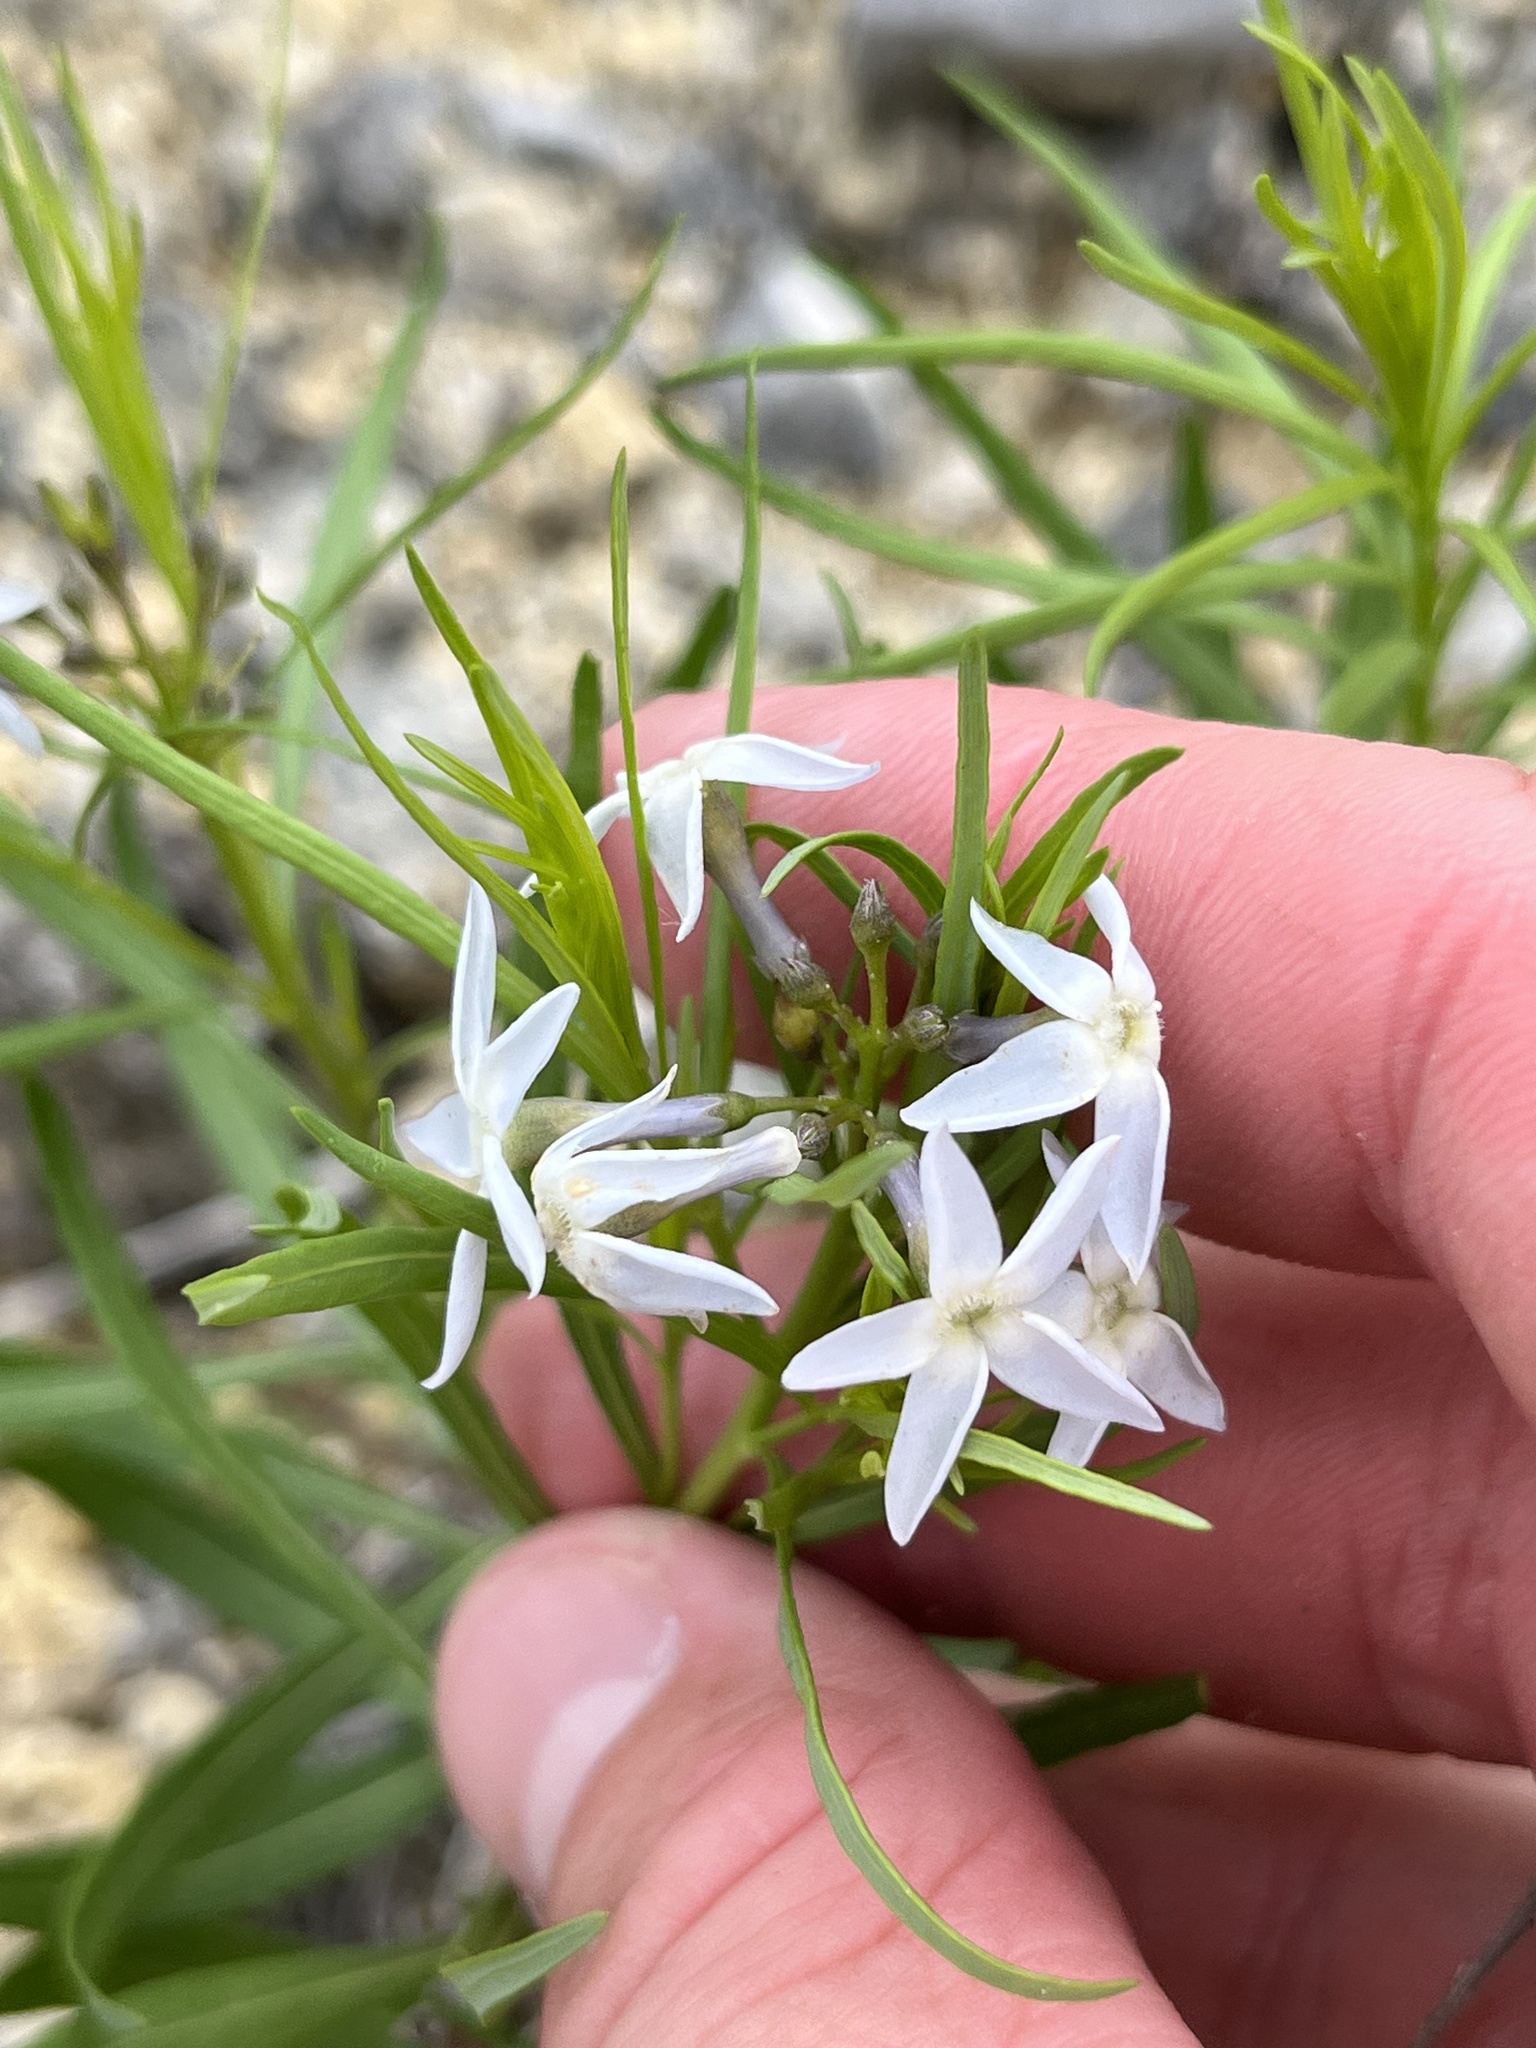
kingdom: Plantae
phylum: Tracheophyta
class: Magnoliopsida
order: Gentianales
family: Apocynaceae
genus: Amsonia
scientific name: Amsonia ciliata
